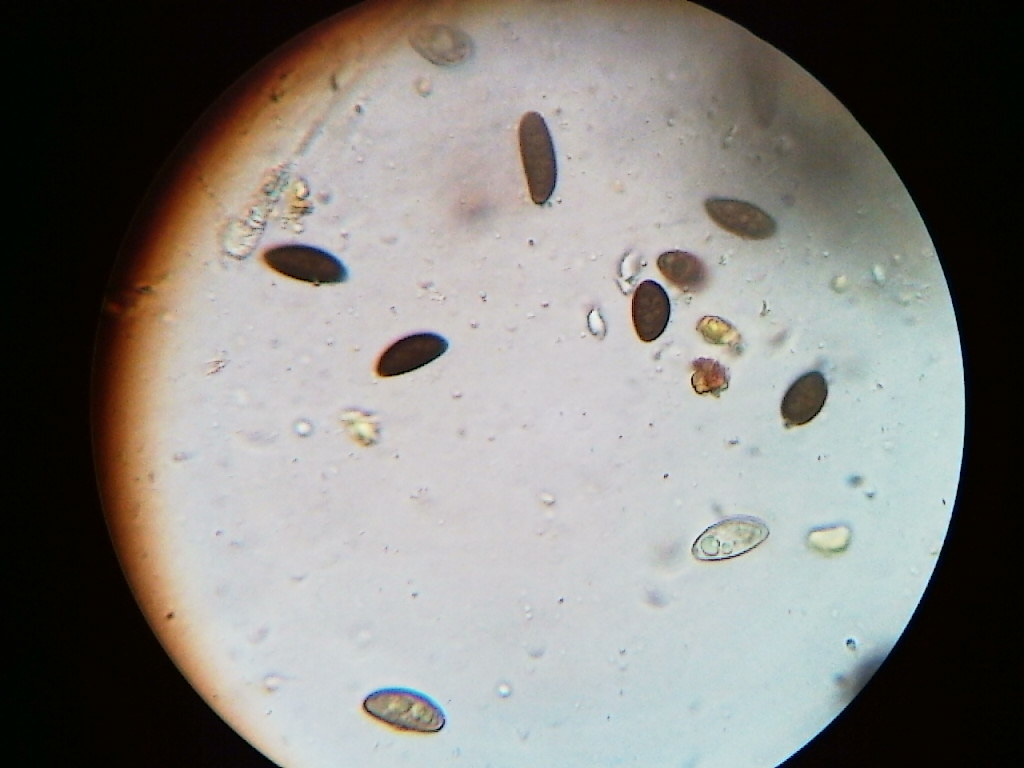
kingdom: Fungi
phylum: Ascomycota
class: Sordariomycetes
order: Xylariales
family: Hypoxylaceae
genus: Hypoxylon
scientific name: Hypoxylon rubiginosum
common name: Rusty woodwart
